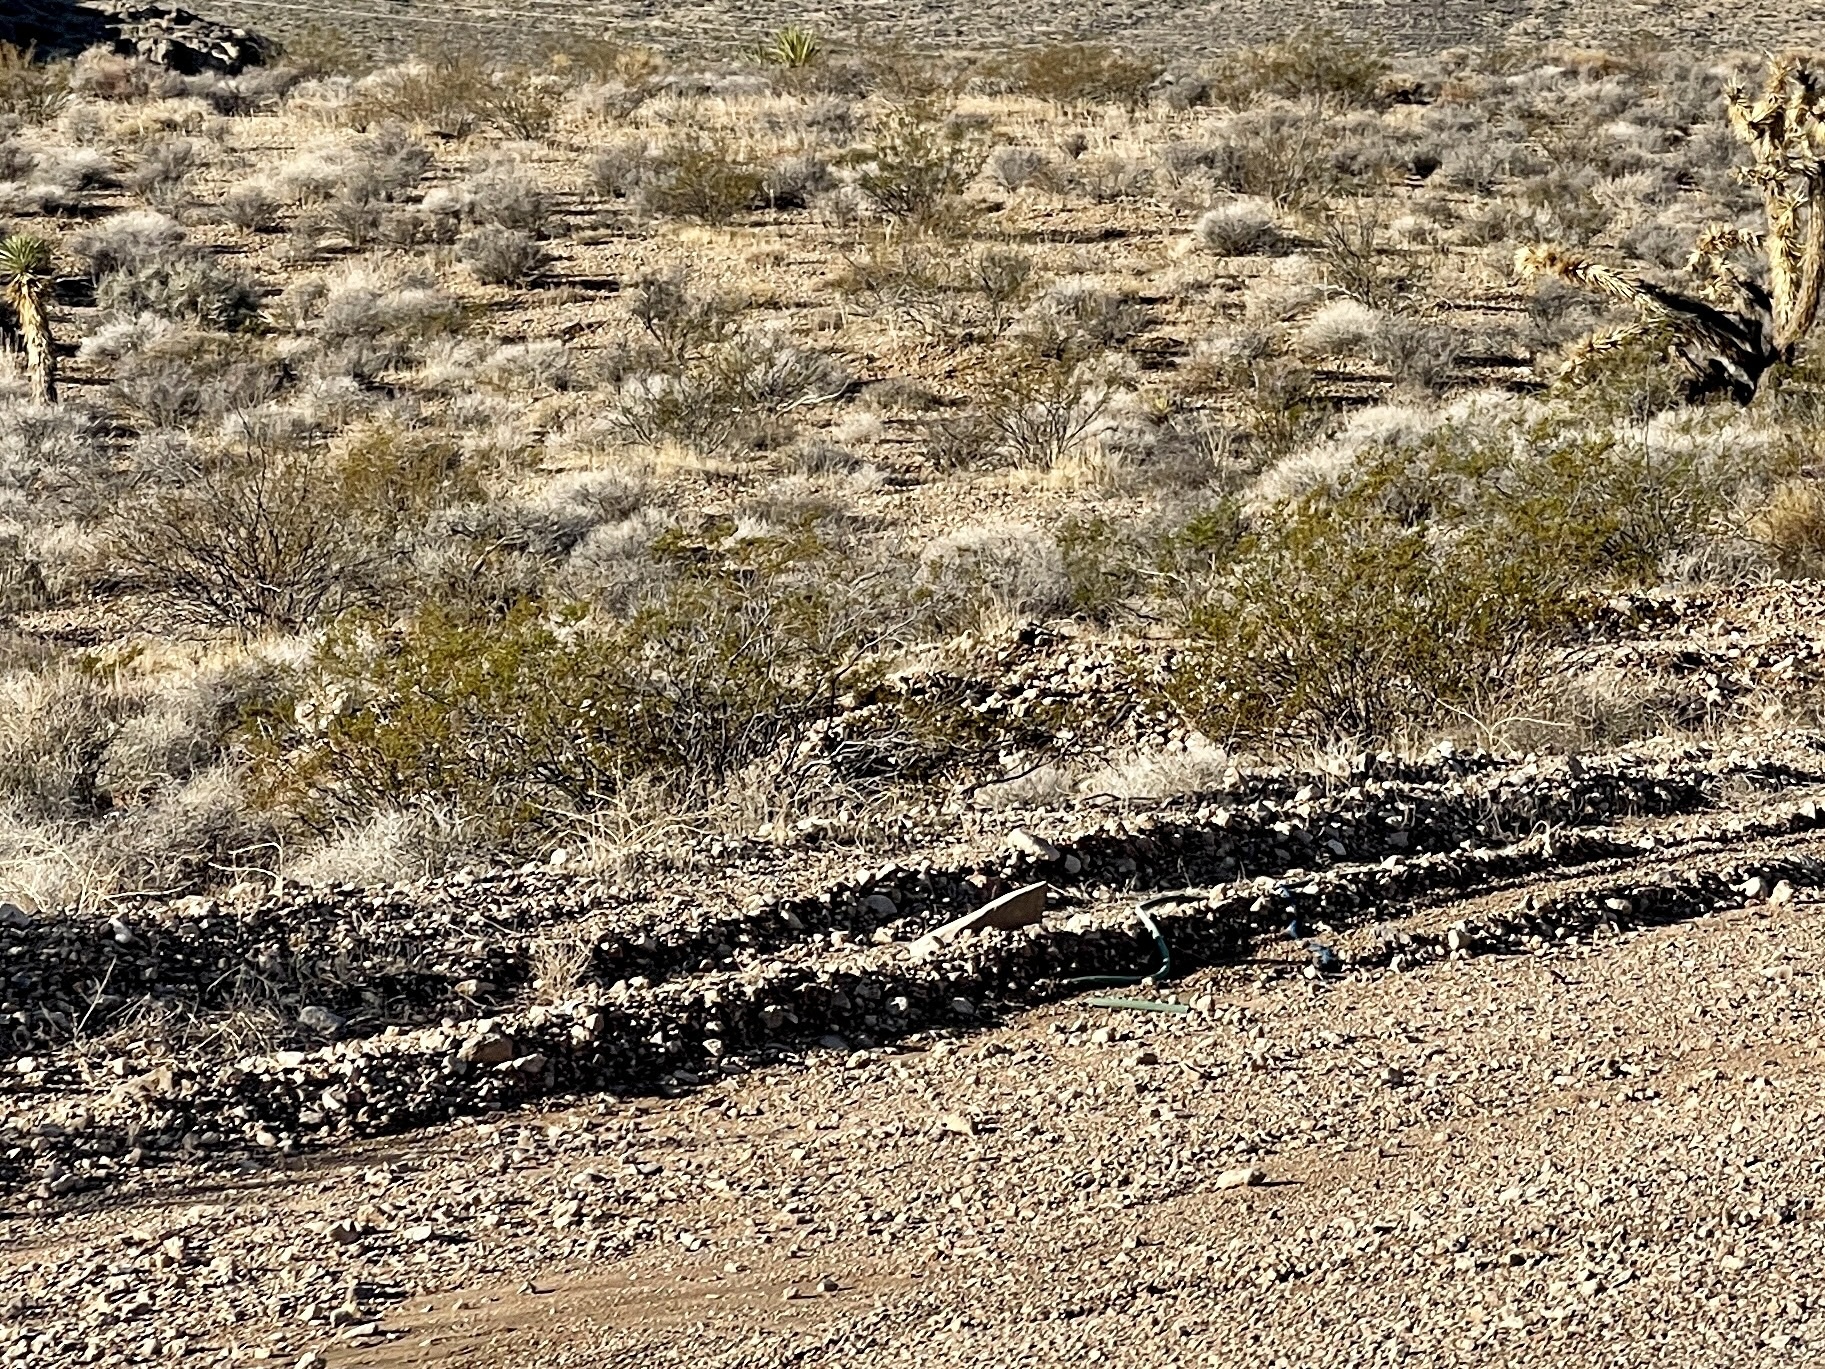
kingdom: Plantae
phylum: Tracheophyta
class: Magnoliopsida
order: Zygophyllales
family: Zygophyllaceae
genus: Larrea
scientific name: Larrea tridentata
